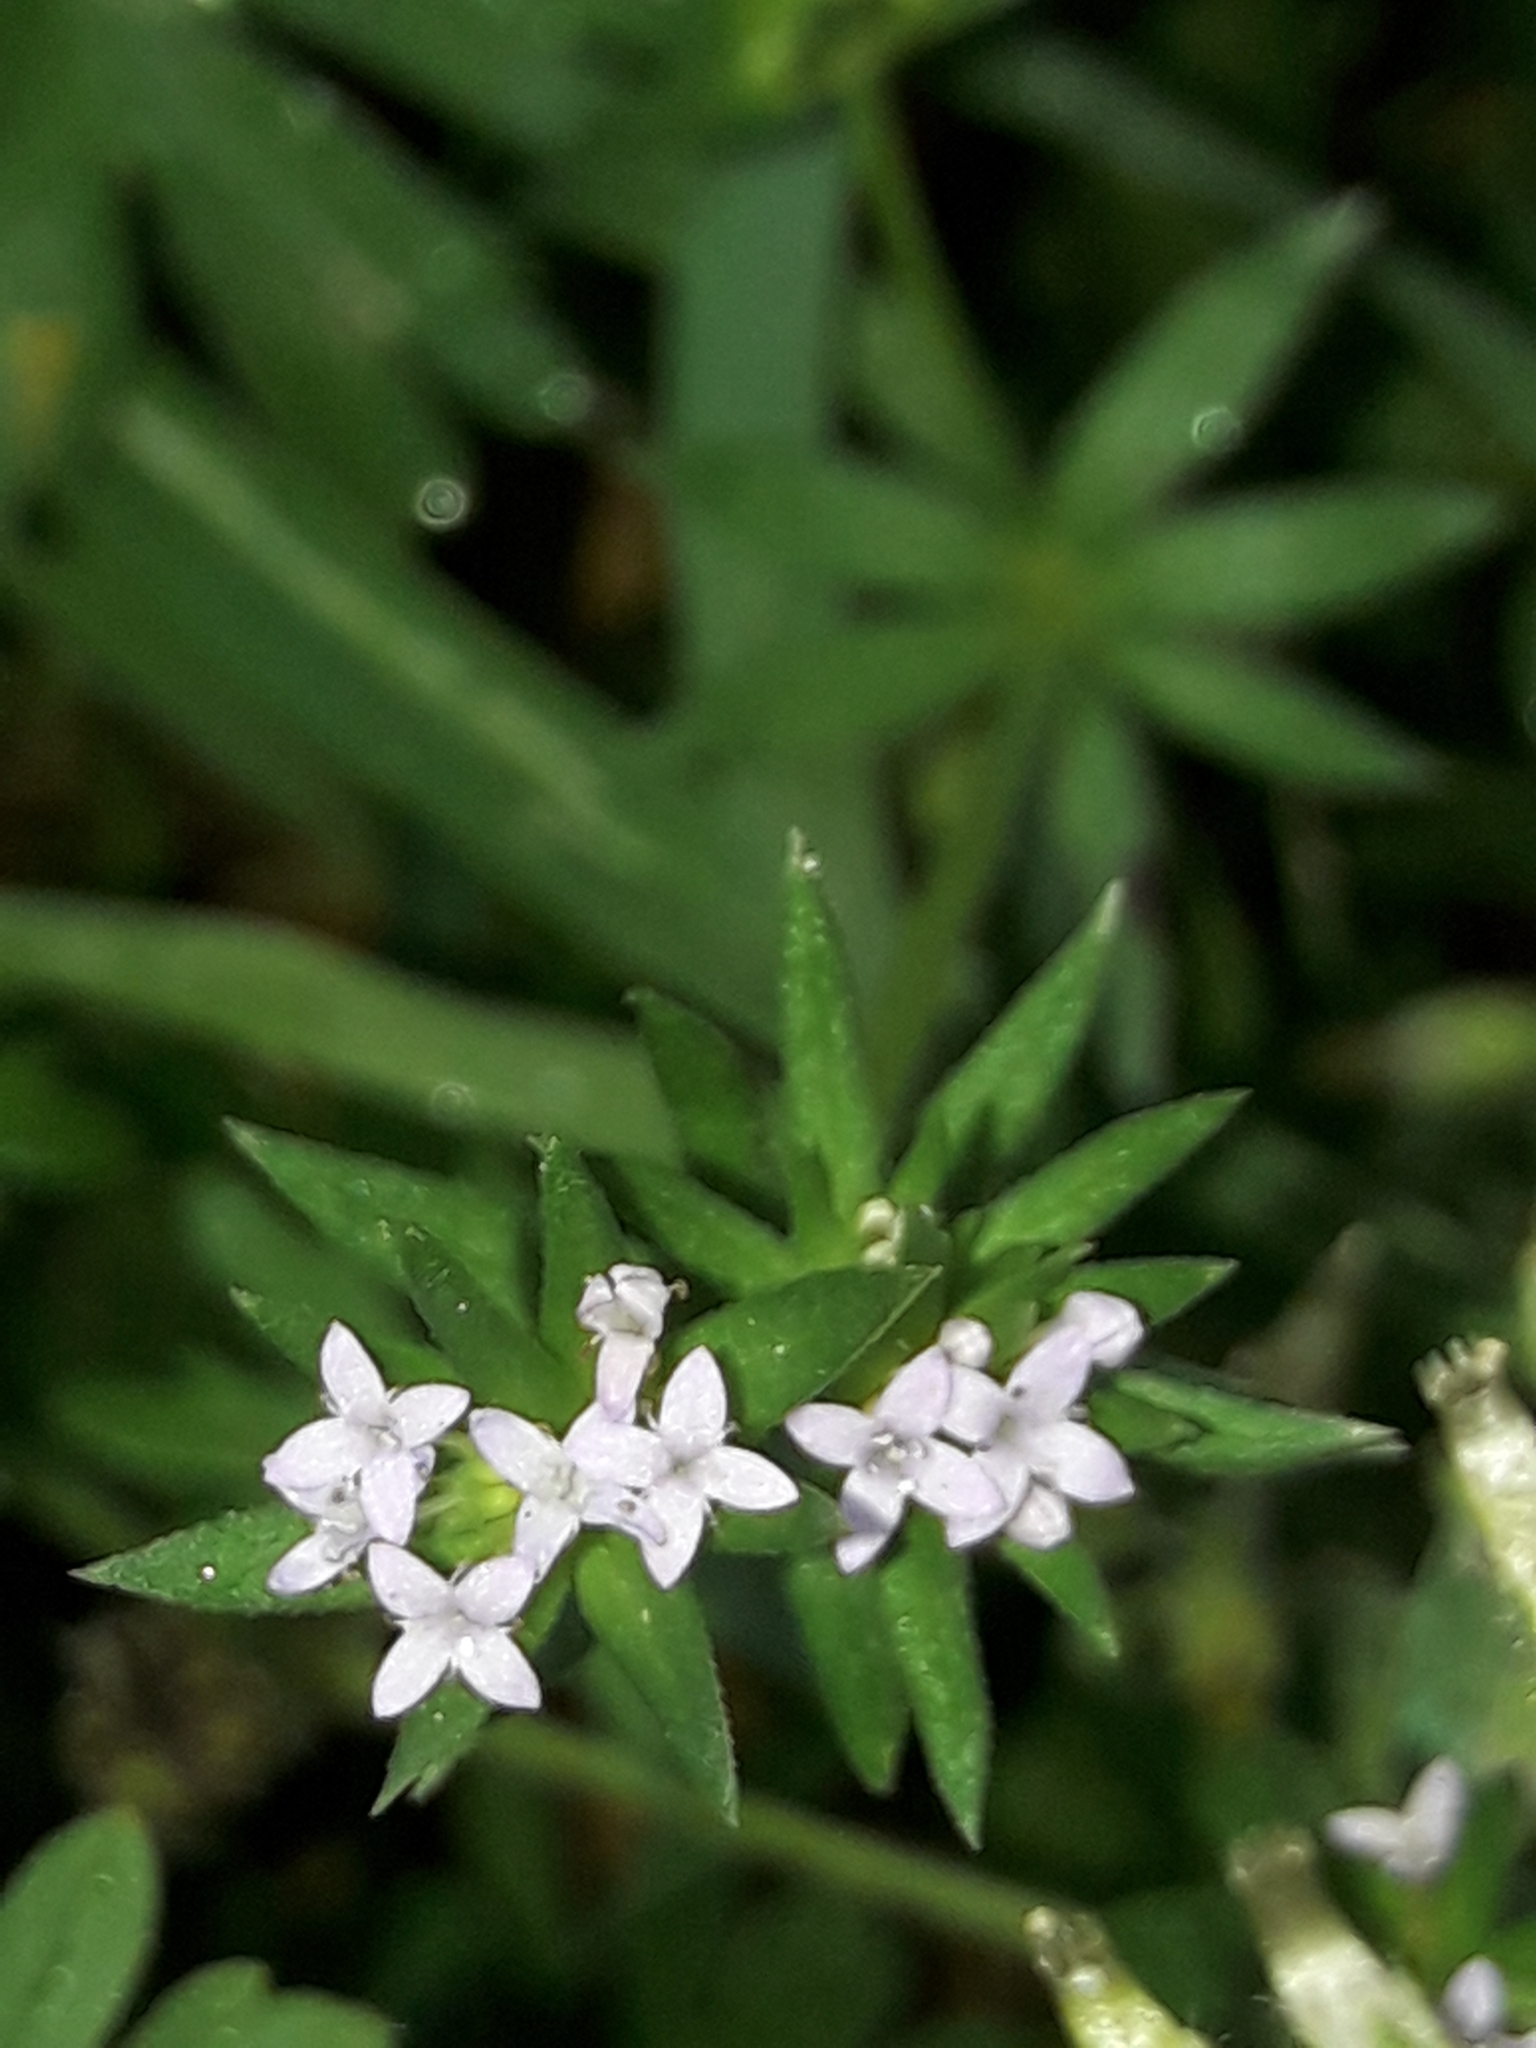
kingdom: Plantae
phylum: Tracheophyta
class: Magnoliopsida
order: Gentianales
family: Rubiaceae
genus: Sherardia
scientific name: Sherardia arvensis
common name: Field madder
